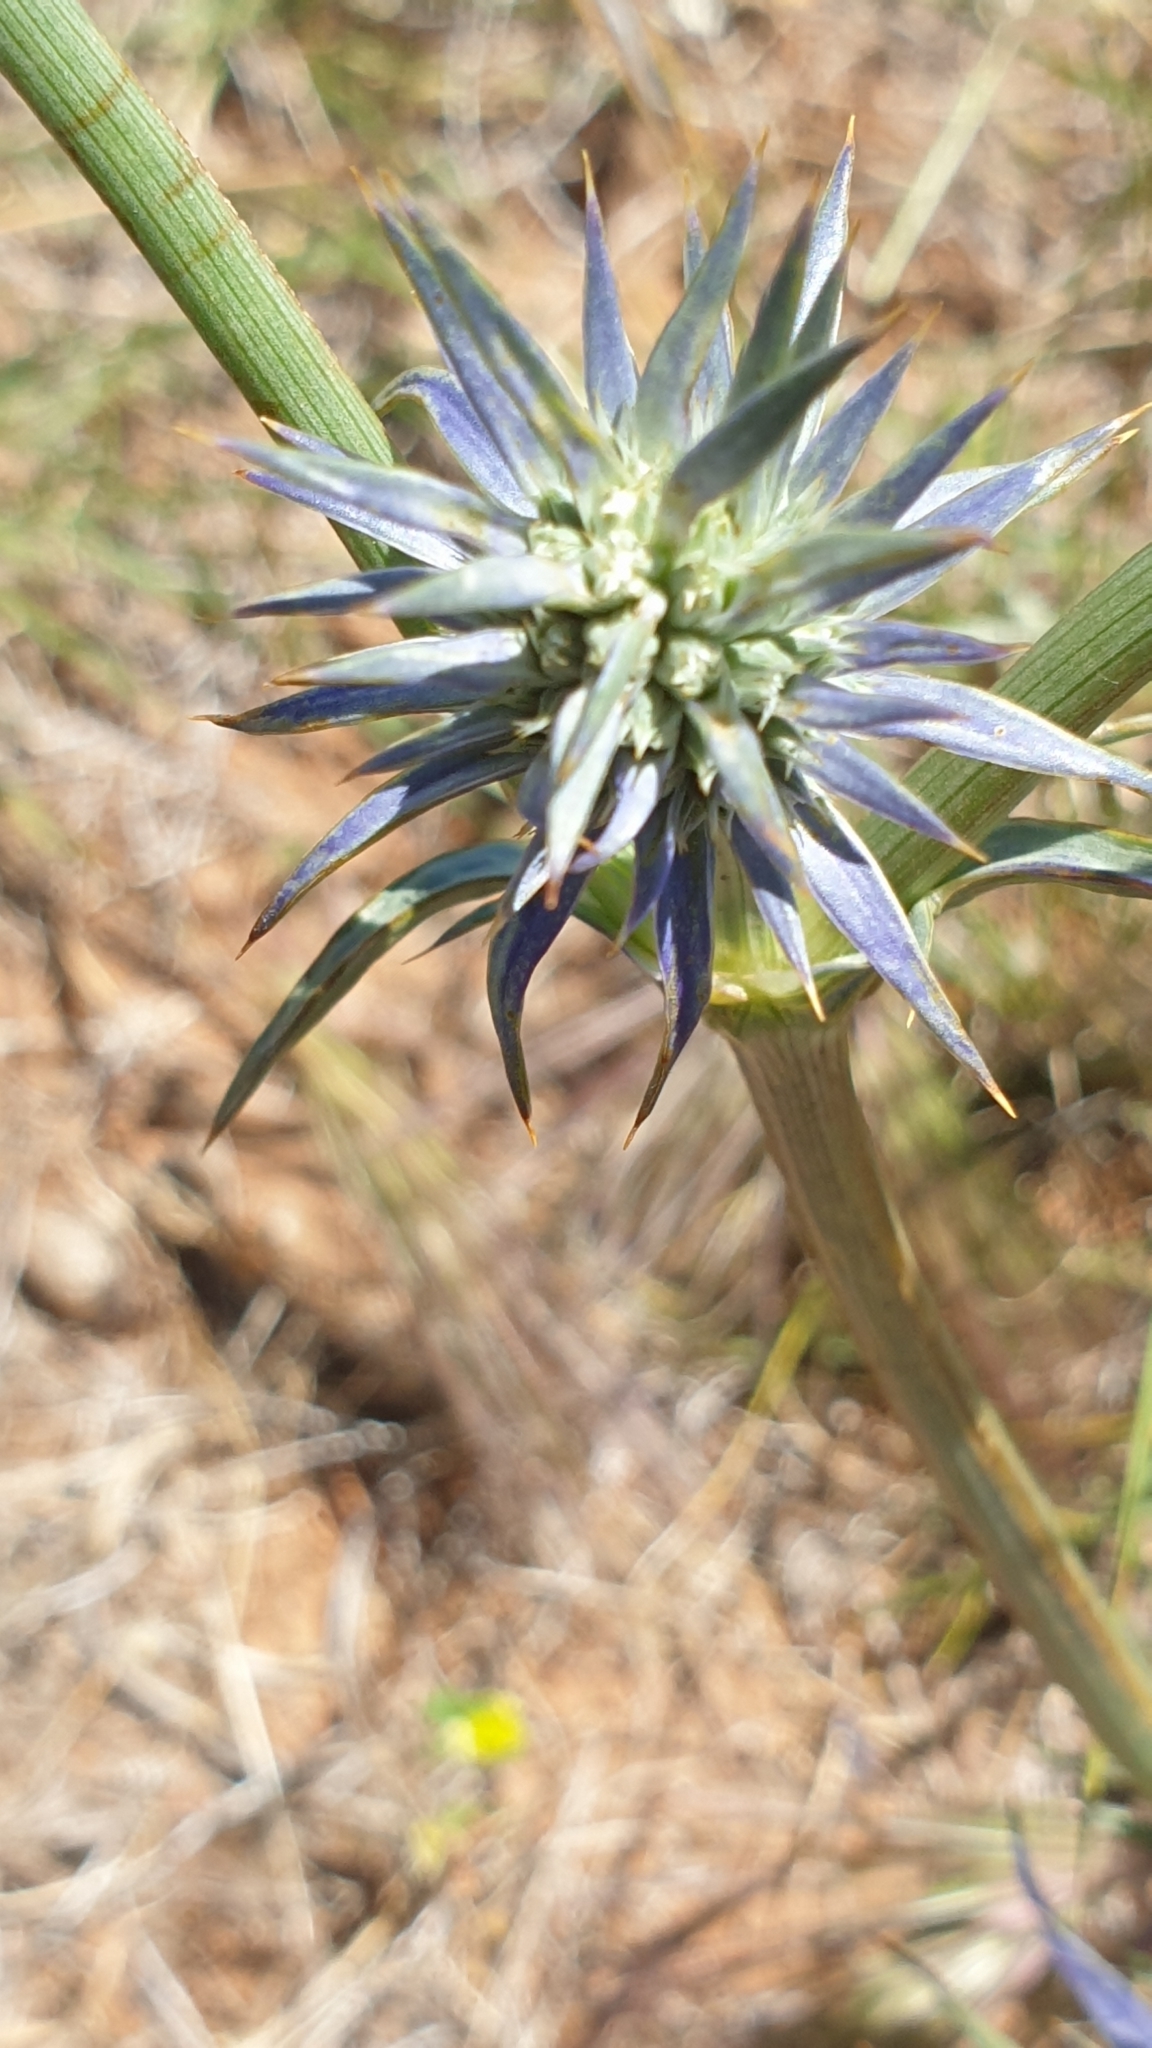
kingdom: Plantae
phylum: Tracheophyta
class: Magnoliopsida
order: Apiales
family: Apiaceae
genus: Eryngium
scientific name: Eryngium ovinum
